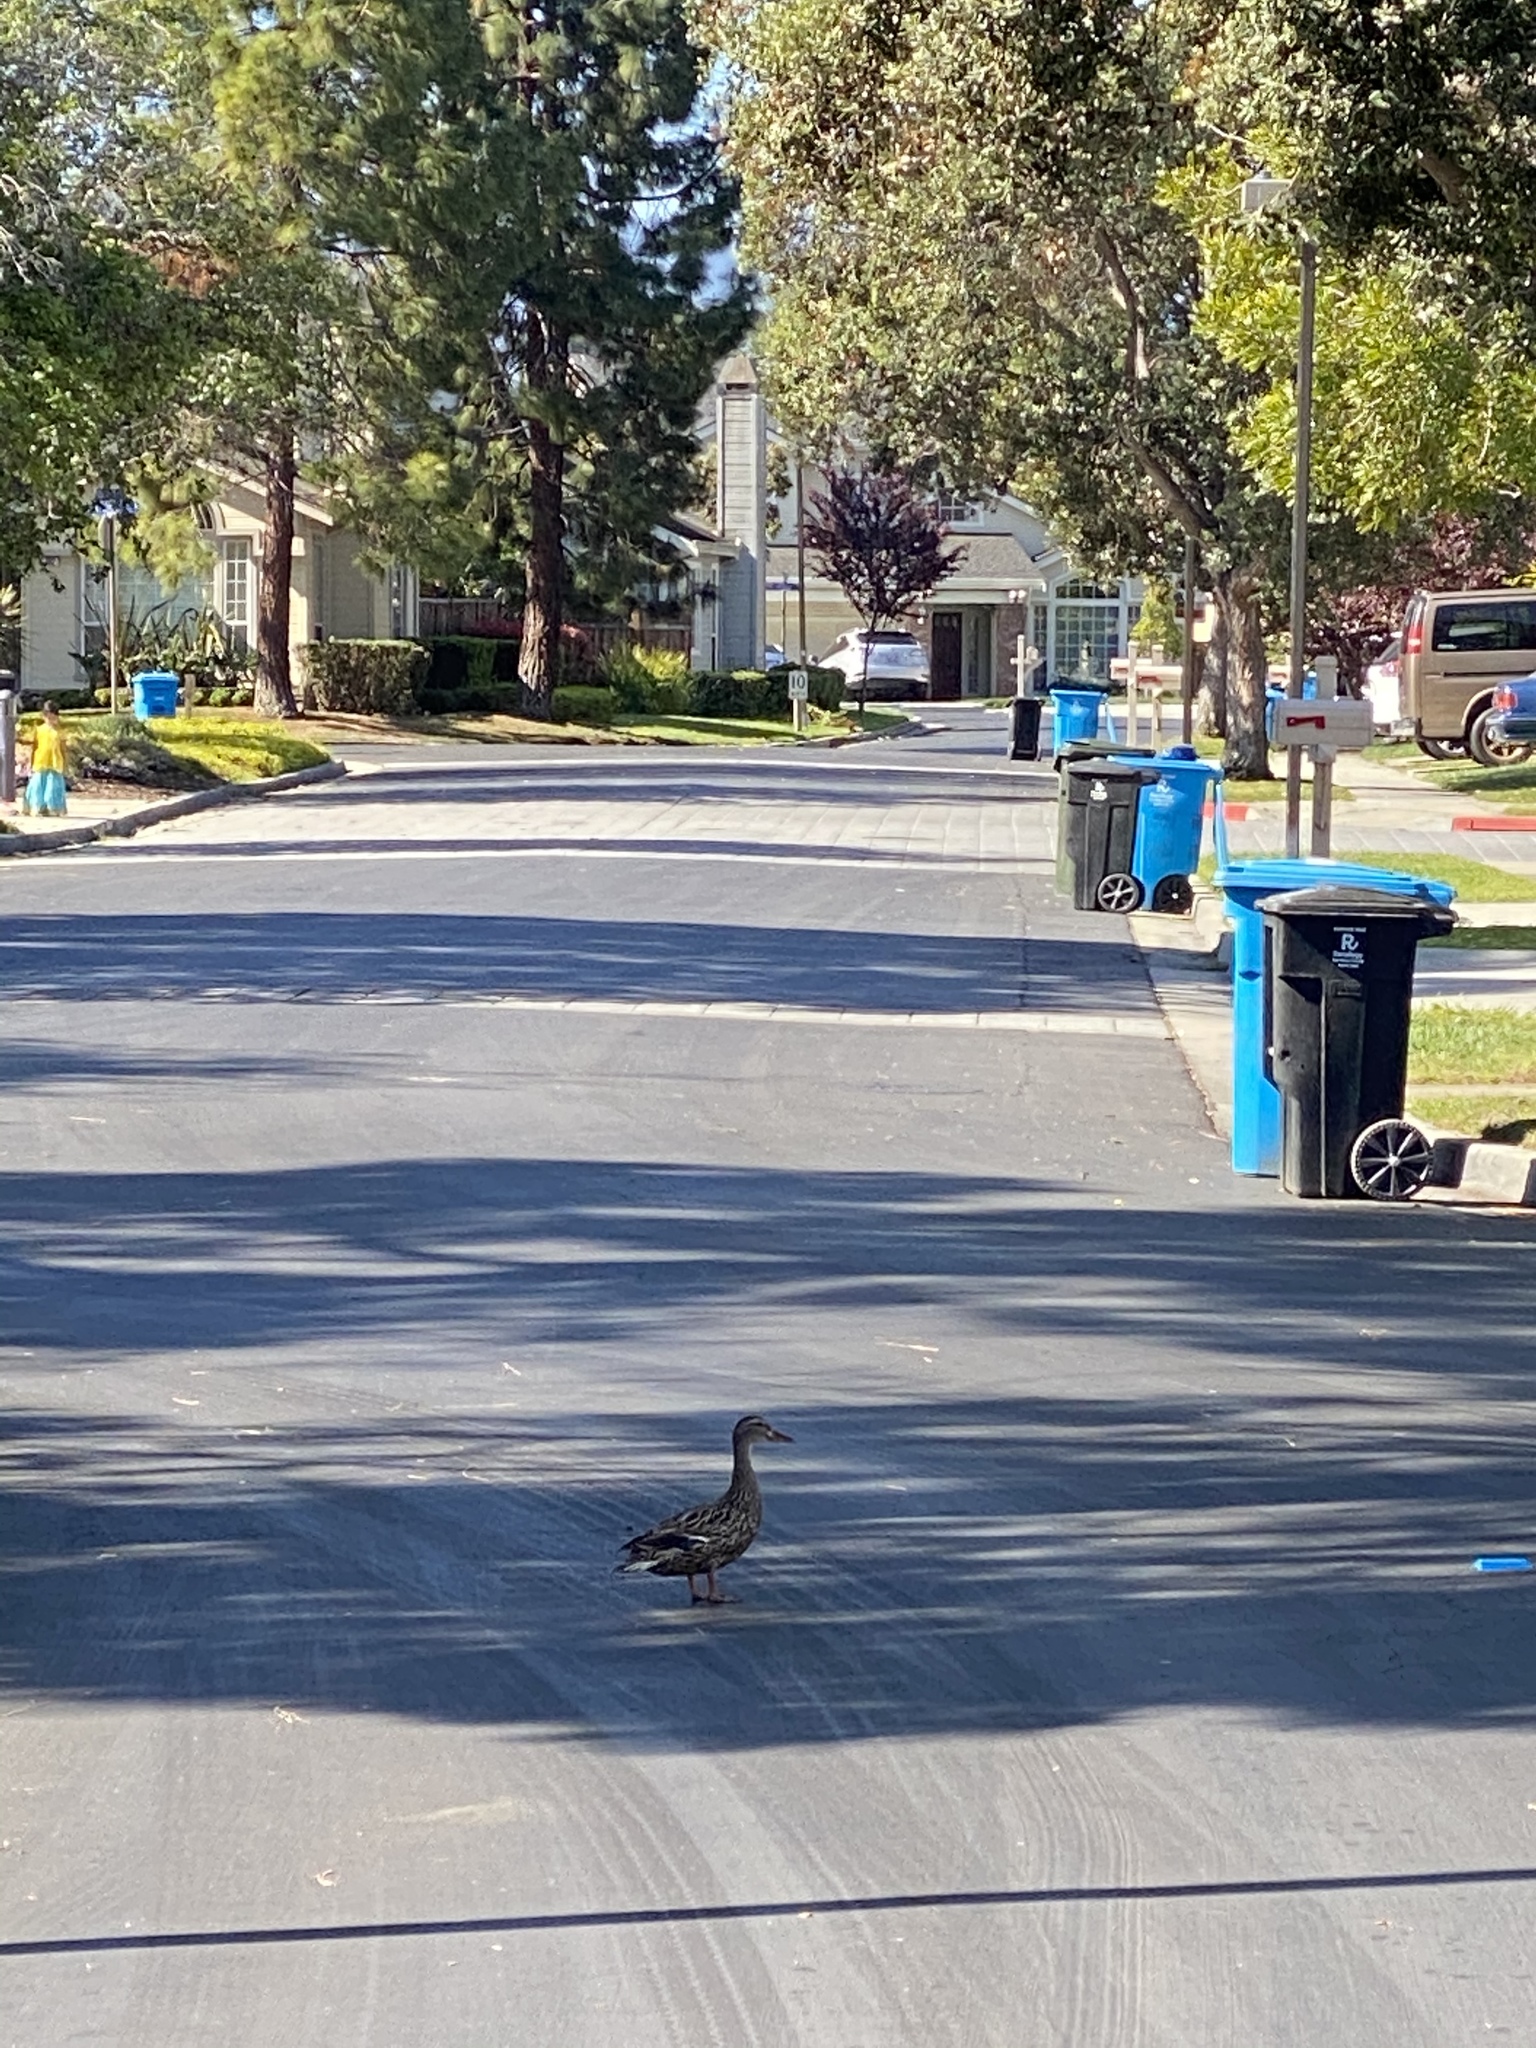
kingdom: Animalia
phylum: Chordata
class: Aves
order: Anseriformes
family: Anatidae
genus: Anas
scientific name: Anas platyrhynchos
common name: Mallard
